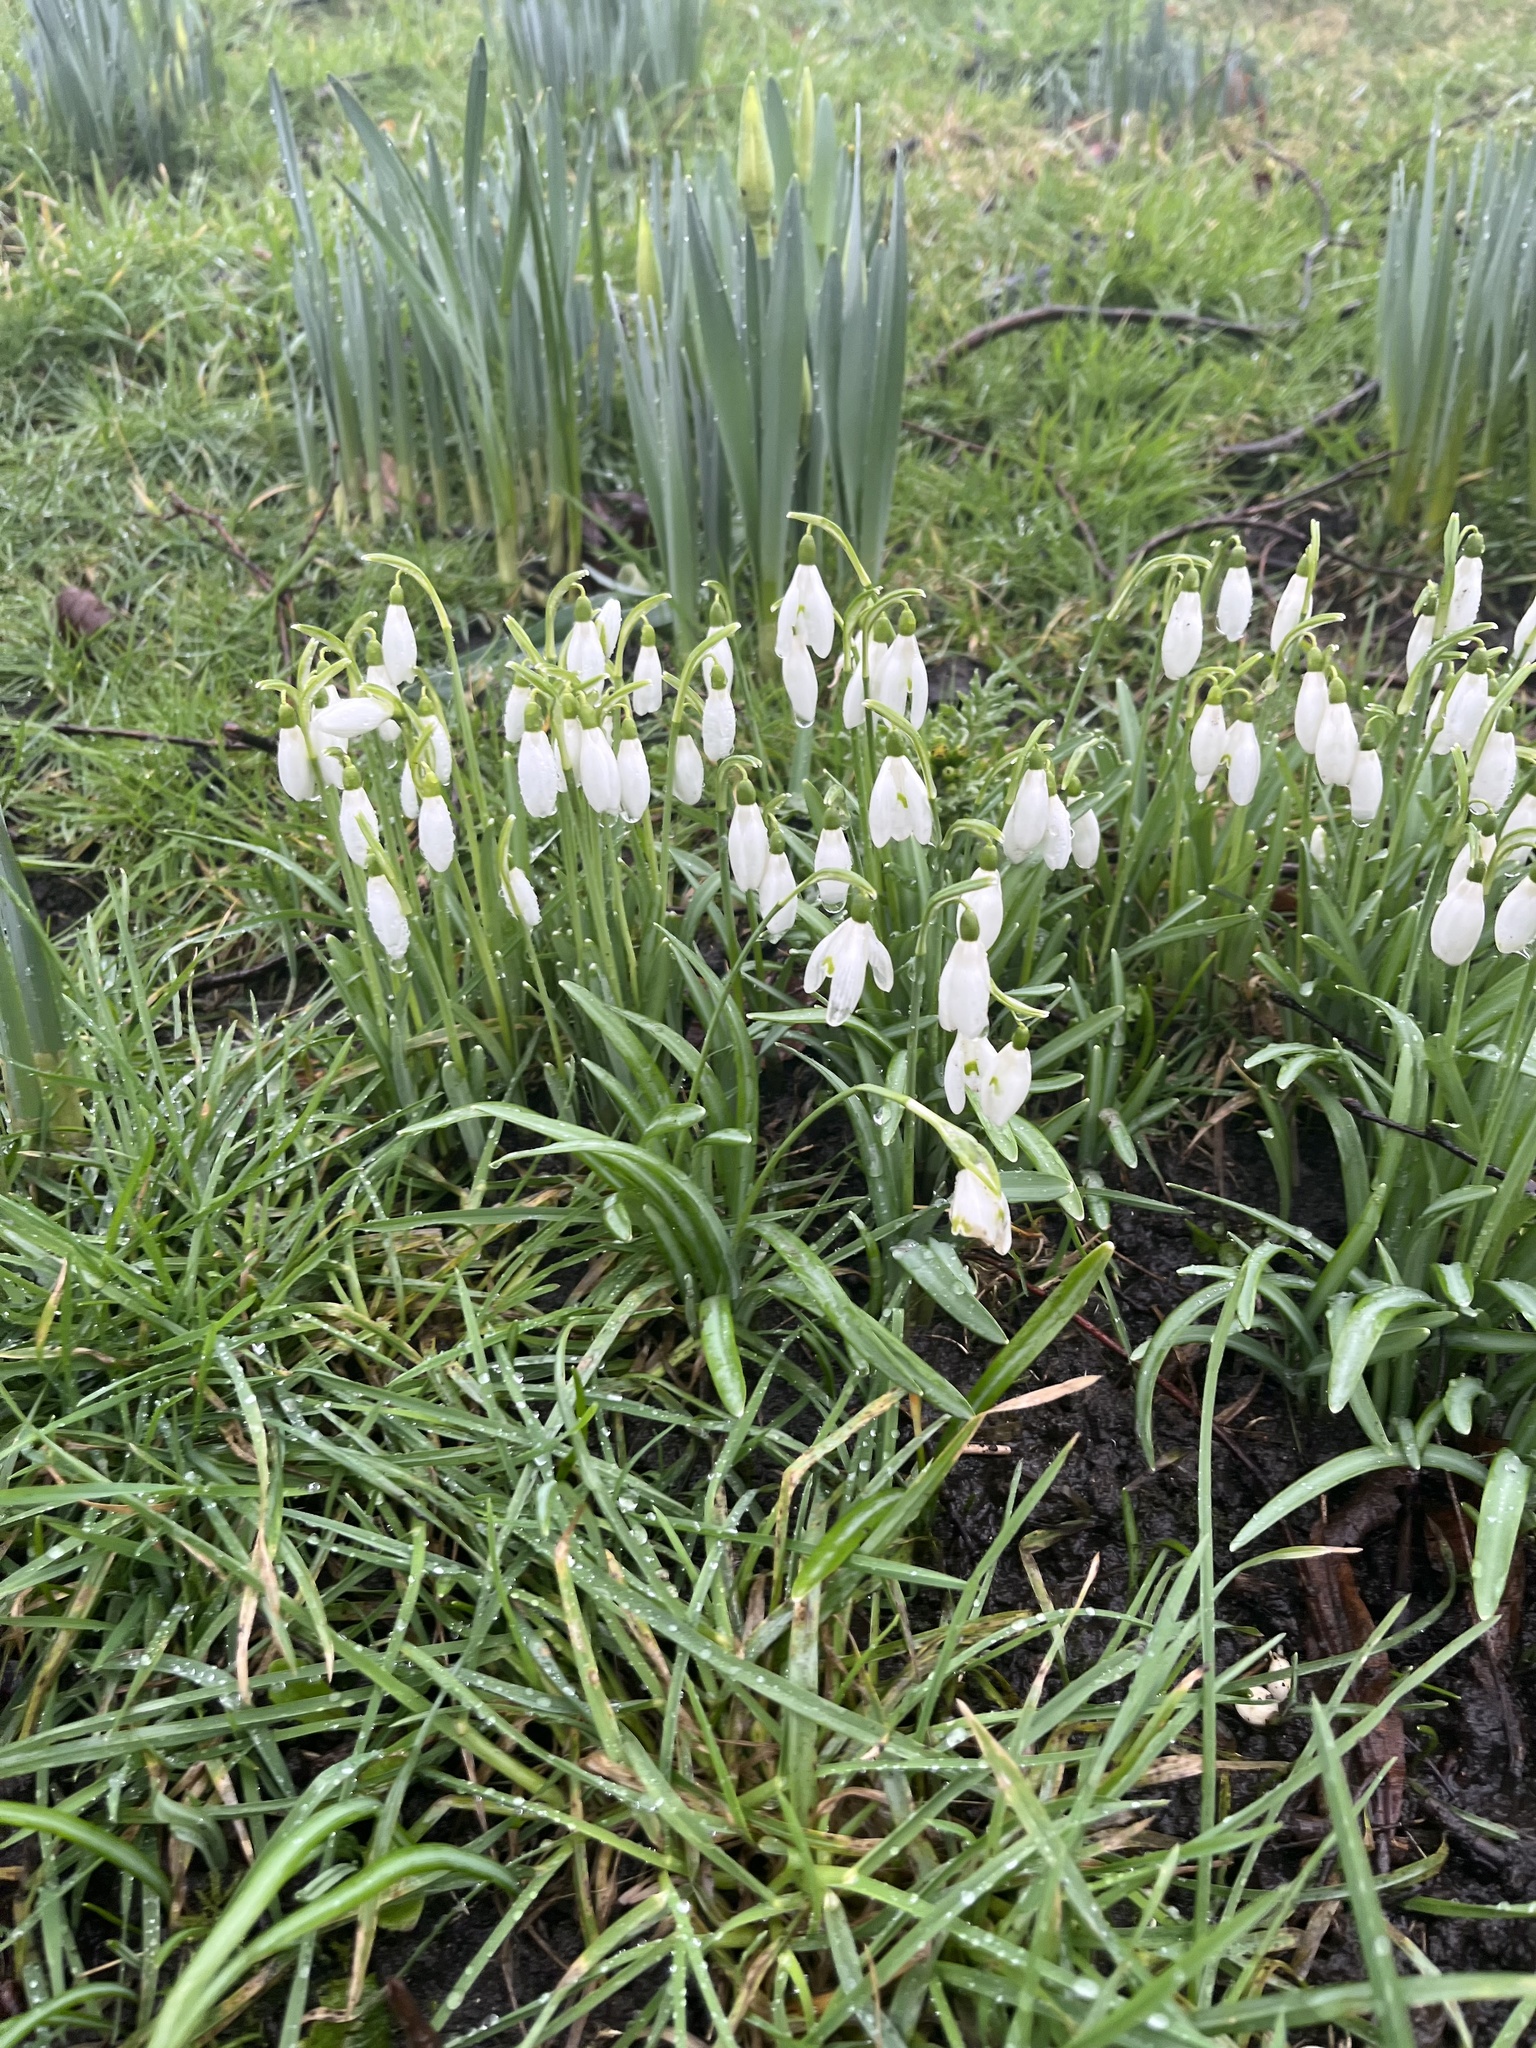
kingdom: Plantae
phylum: Tracheophyta
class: Liliopsida
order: Asparagales
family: Amaryllidaceae
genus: Galanthus
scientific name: Galanthus nivalis
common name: Snowdrop
